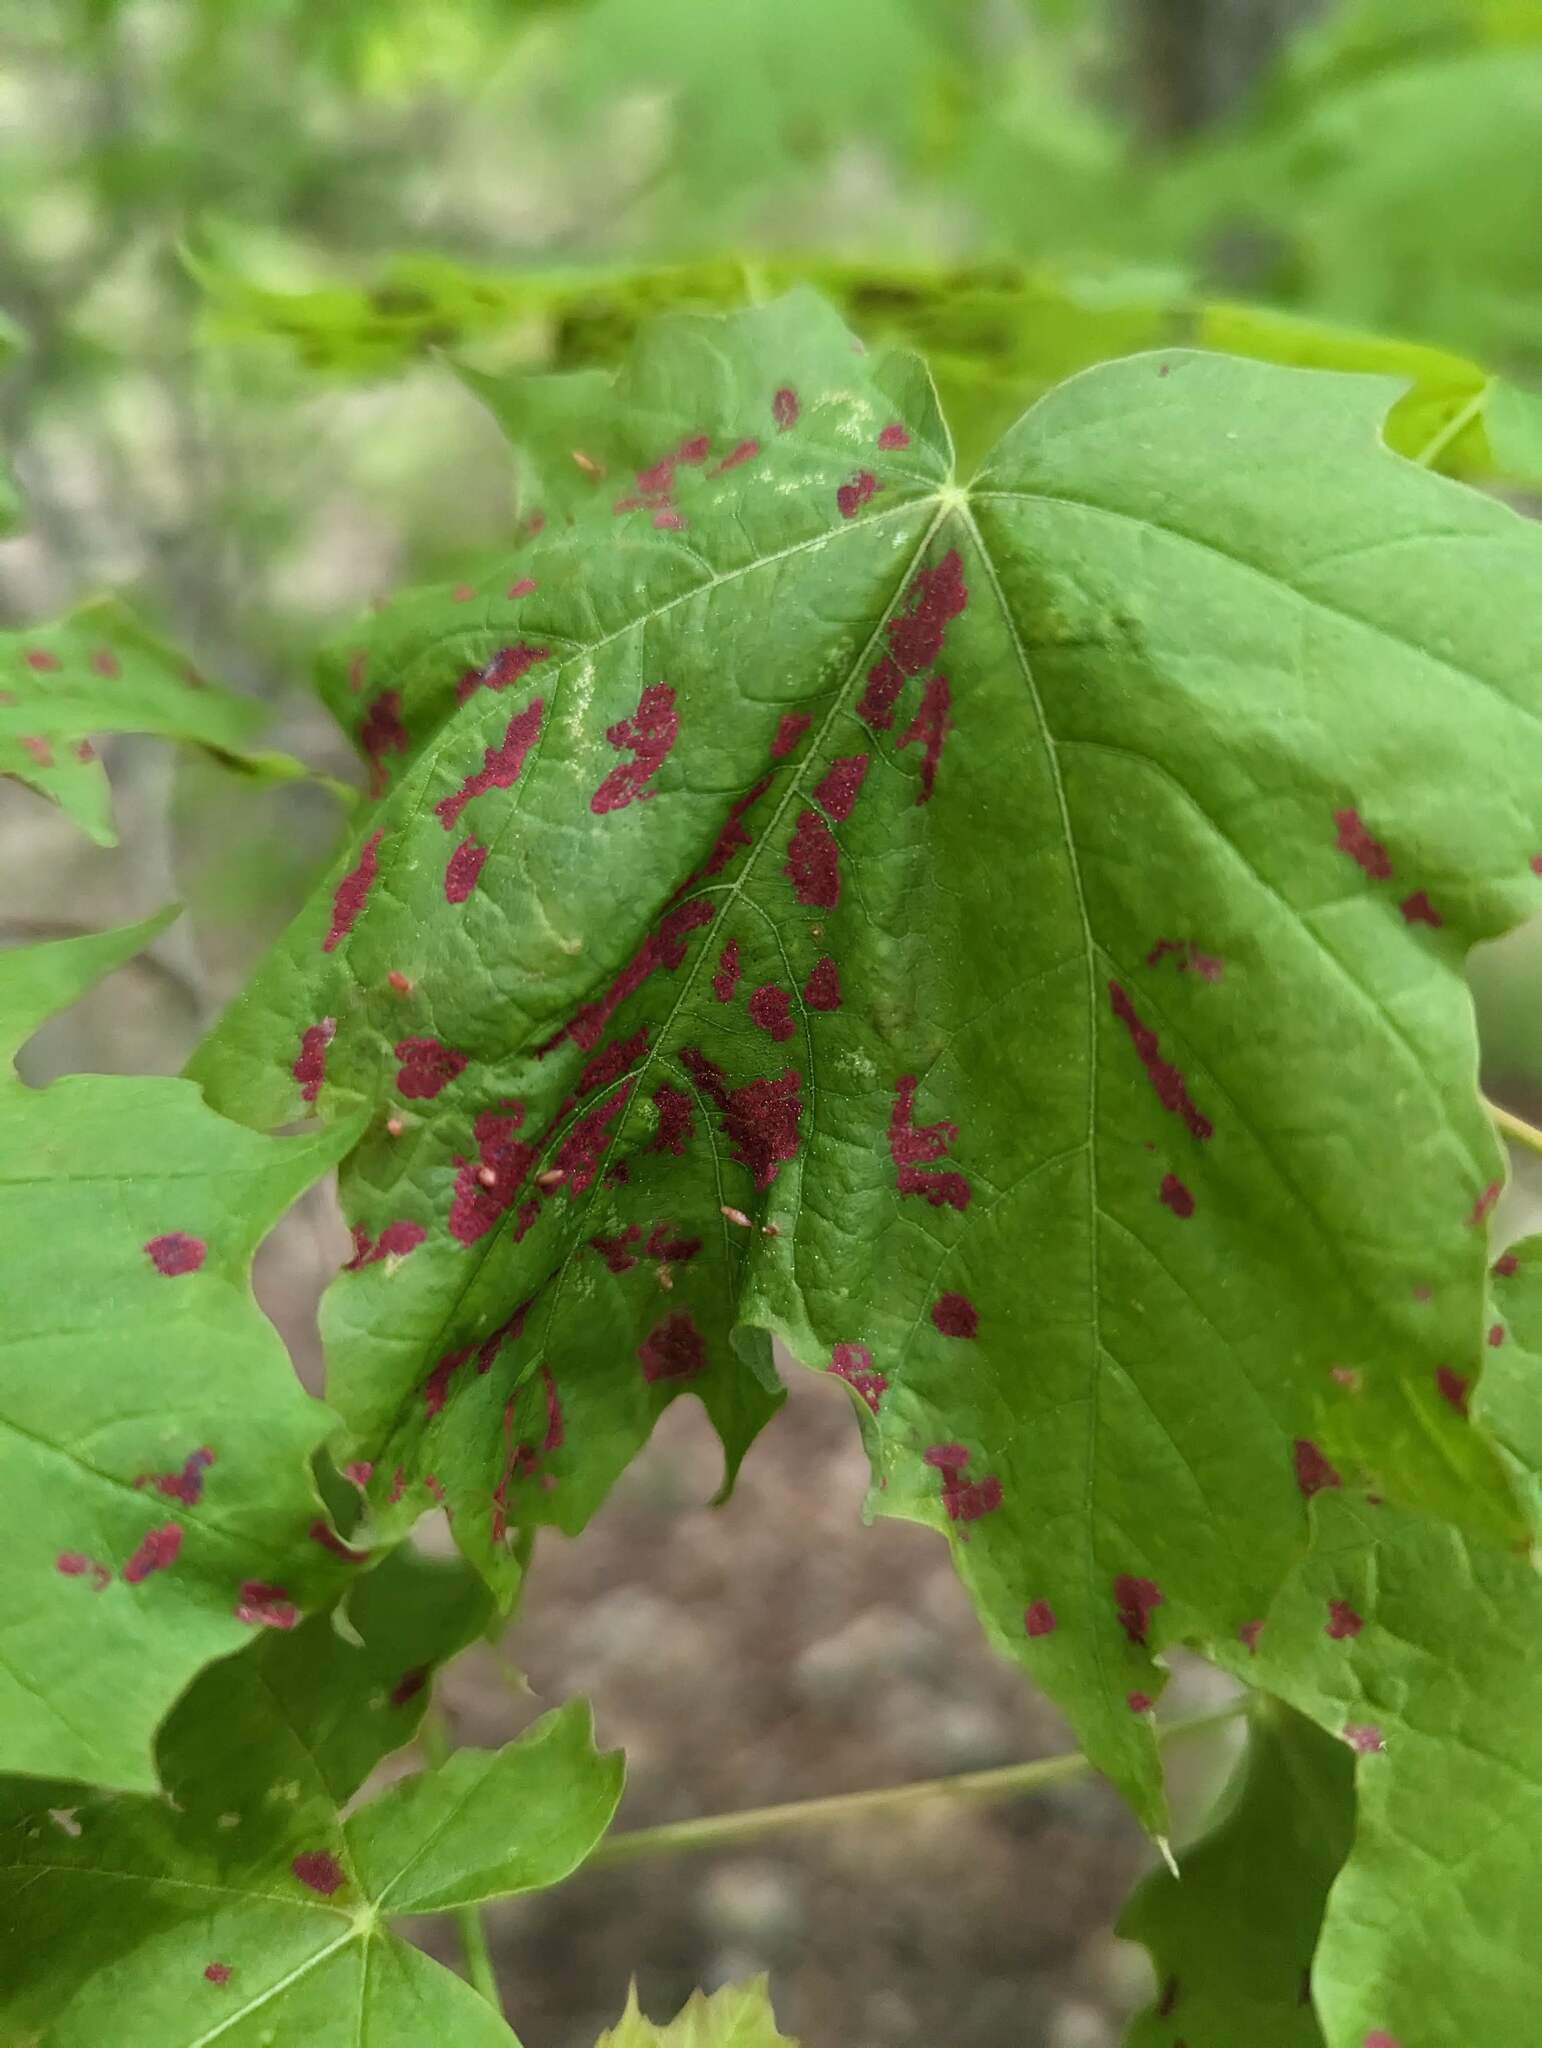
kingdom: Animalia
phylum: Arthropoda
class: Arachnida
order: Trombidiformes
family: Eriophyidae
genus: Aceria
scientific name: Aceria
